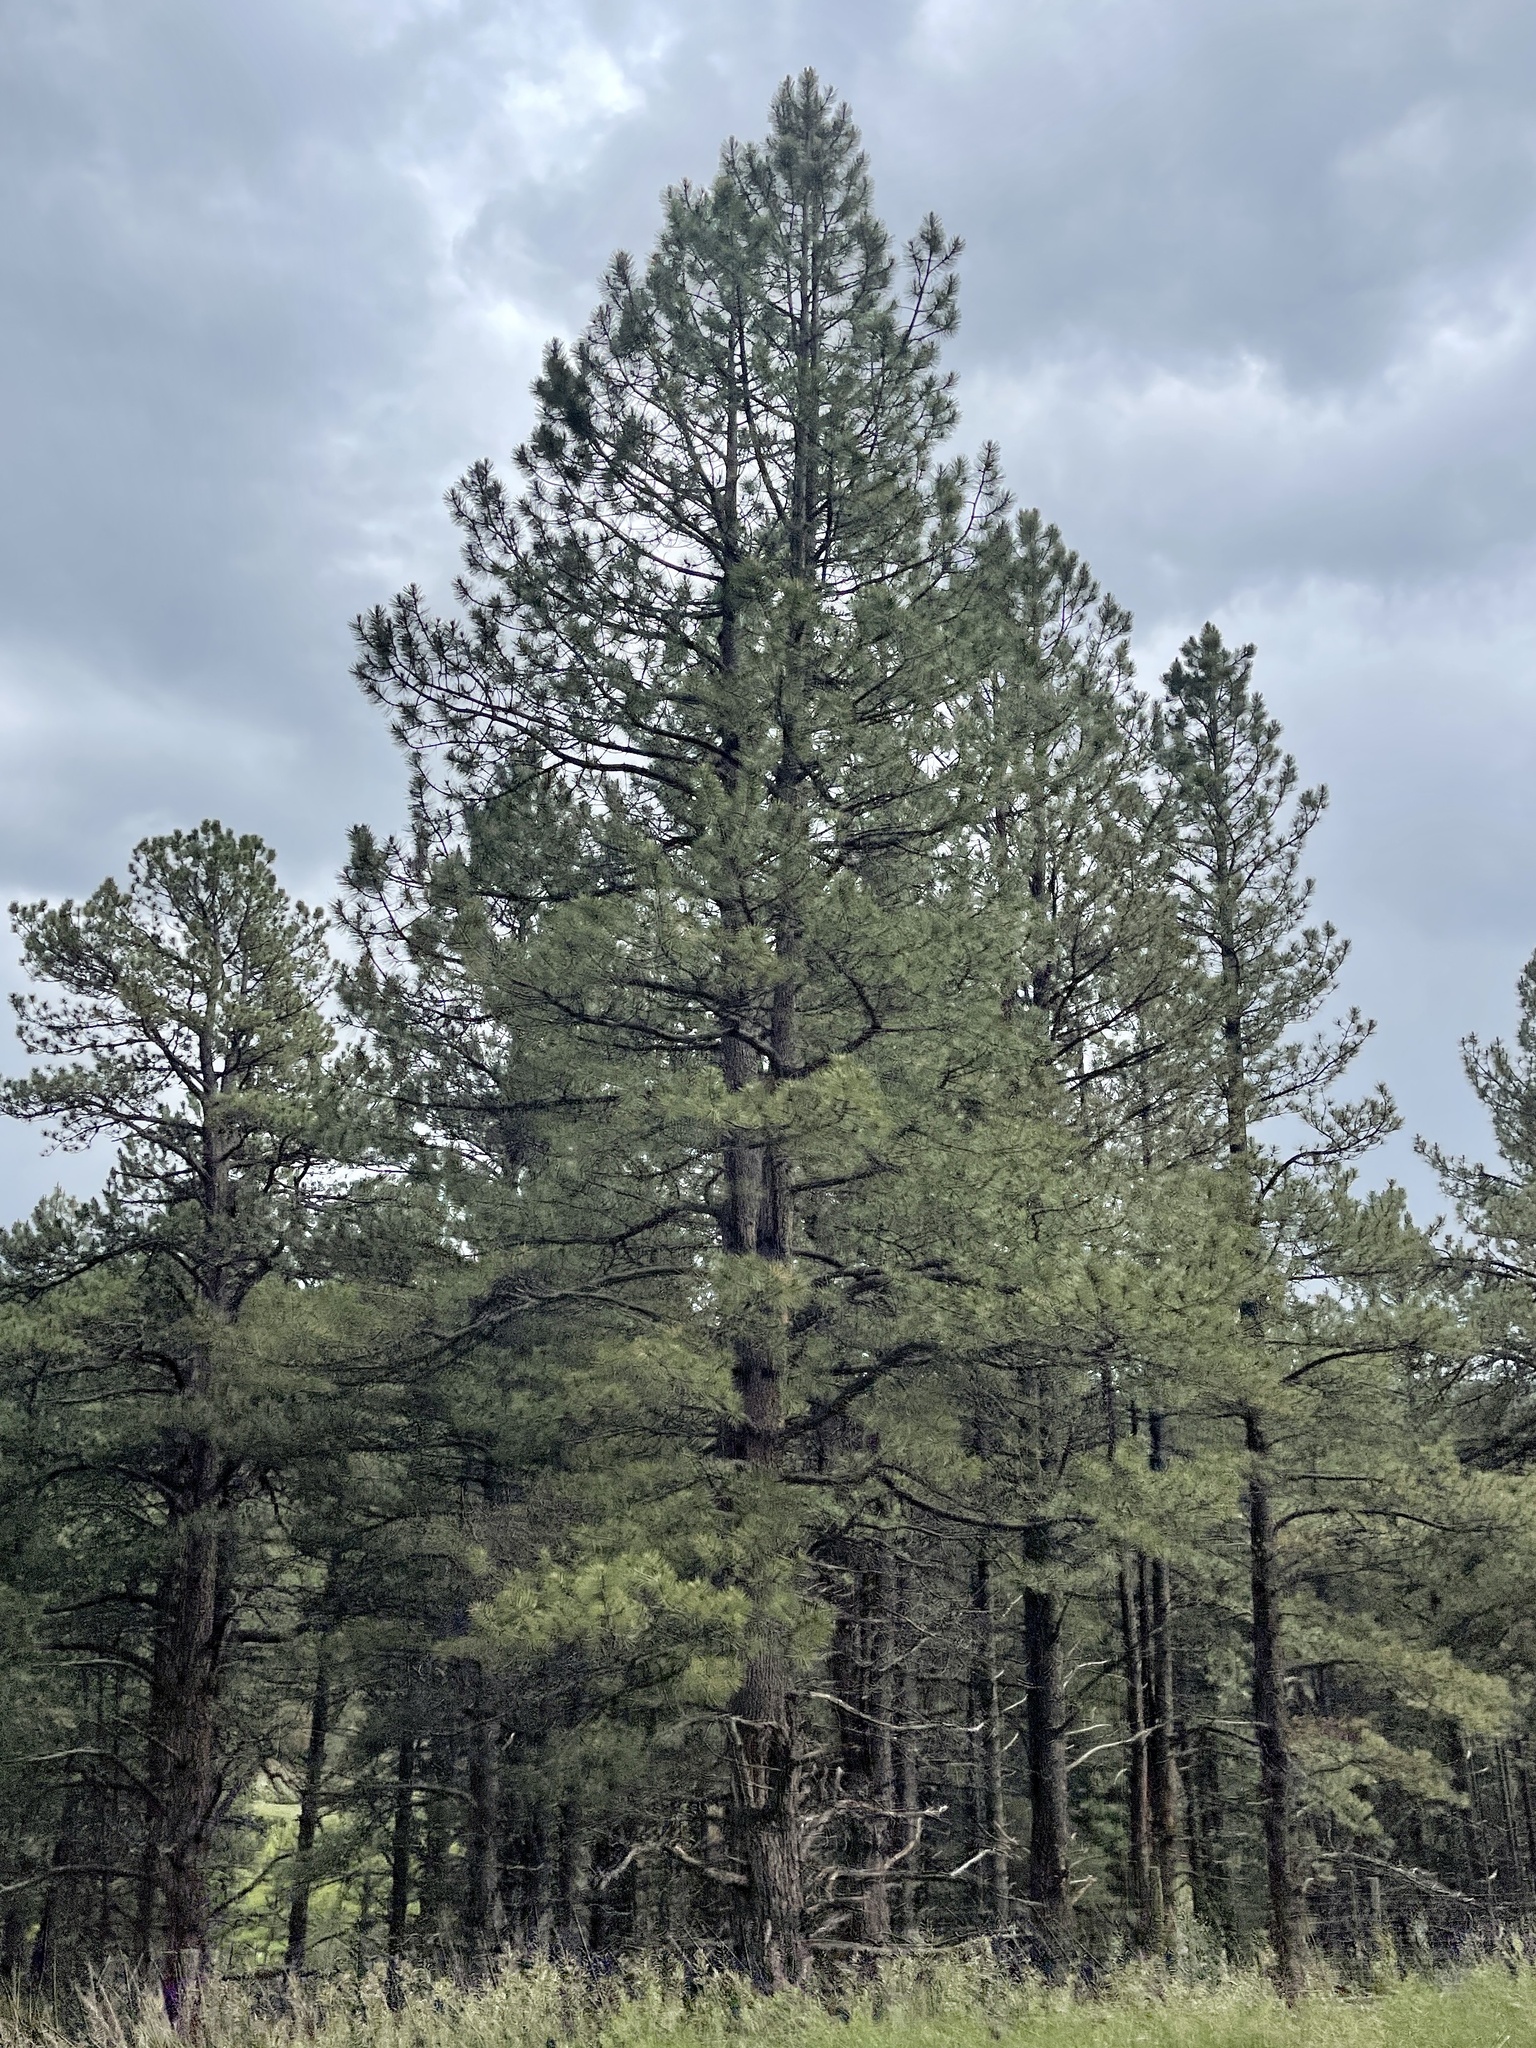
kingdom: Plantae
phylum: Tracheophyta
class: Pinopsida
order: Pinales
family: Pinaceae
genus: Pinus
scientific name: Pinus ponderosa
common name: Western yellow-pine
